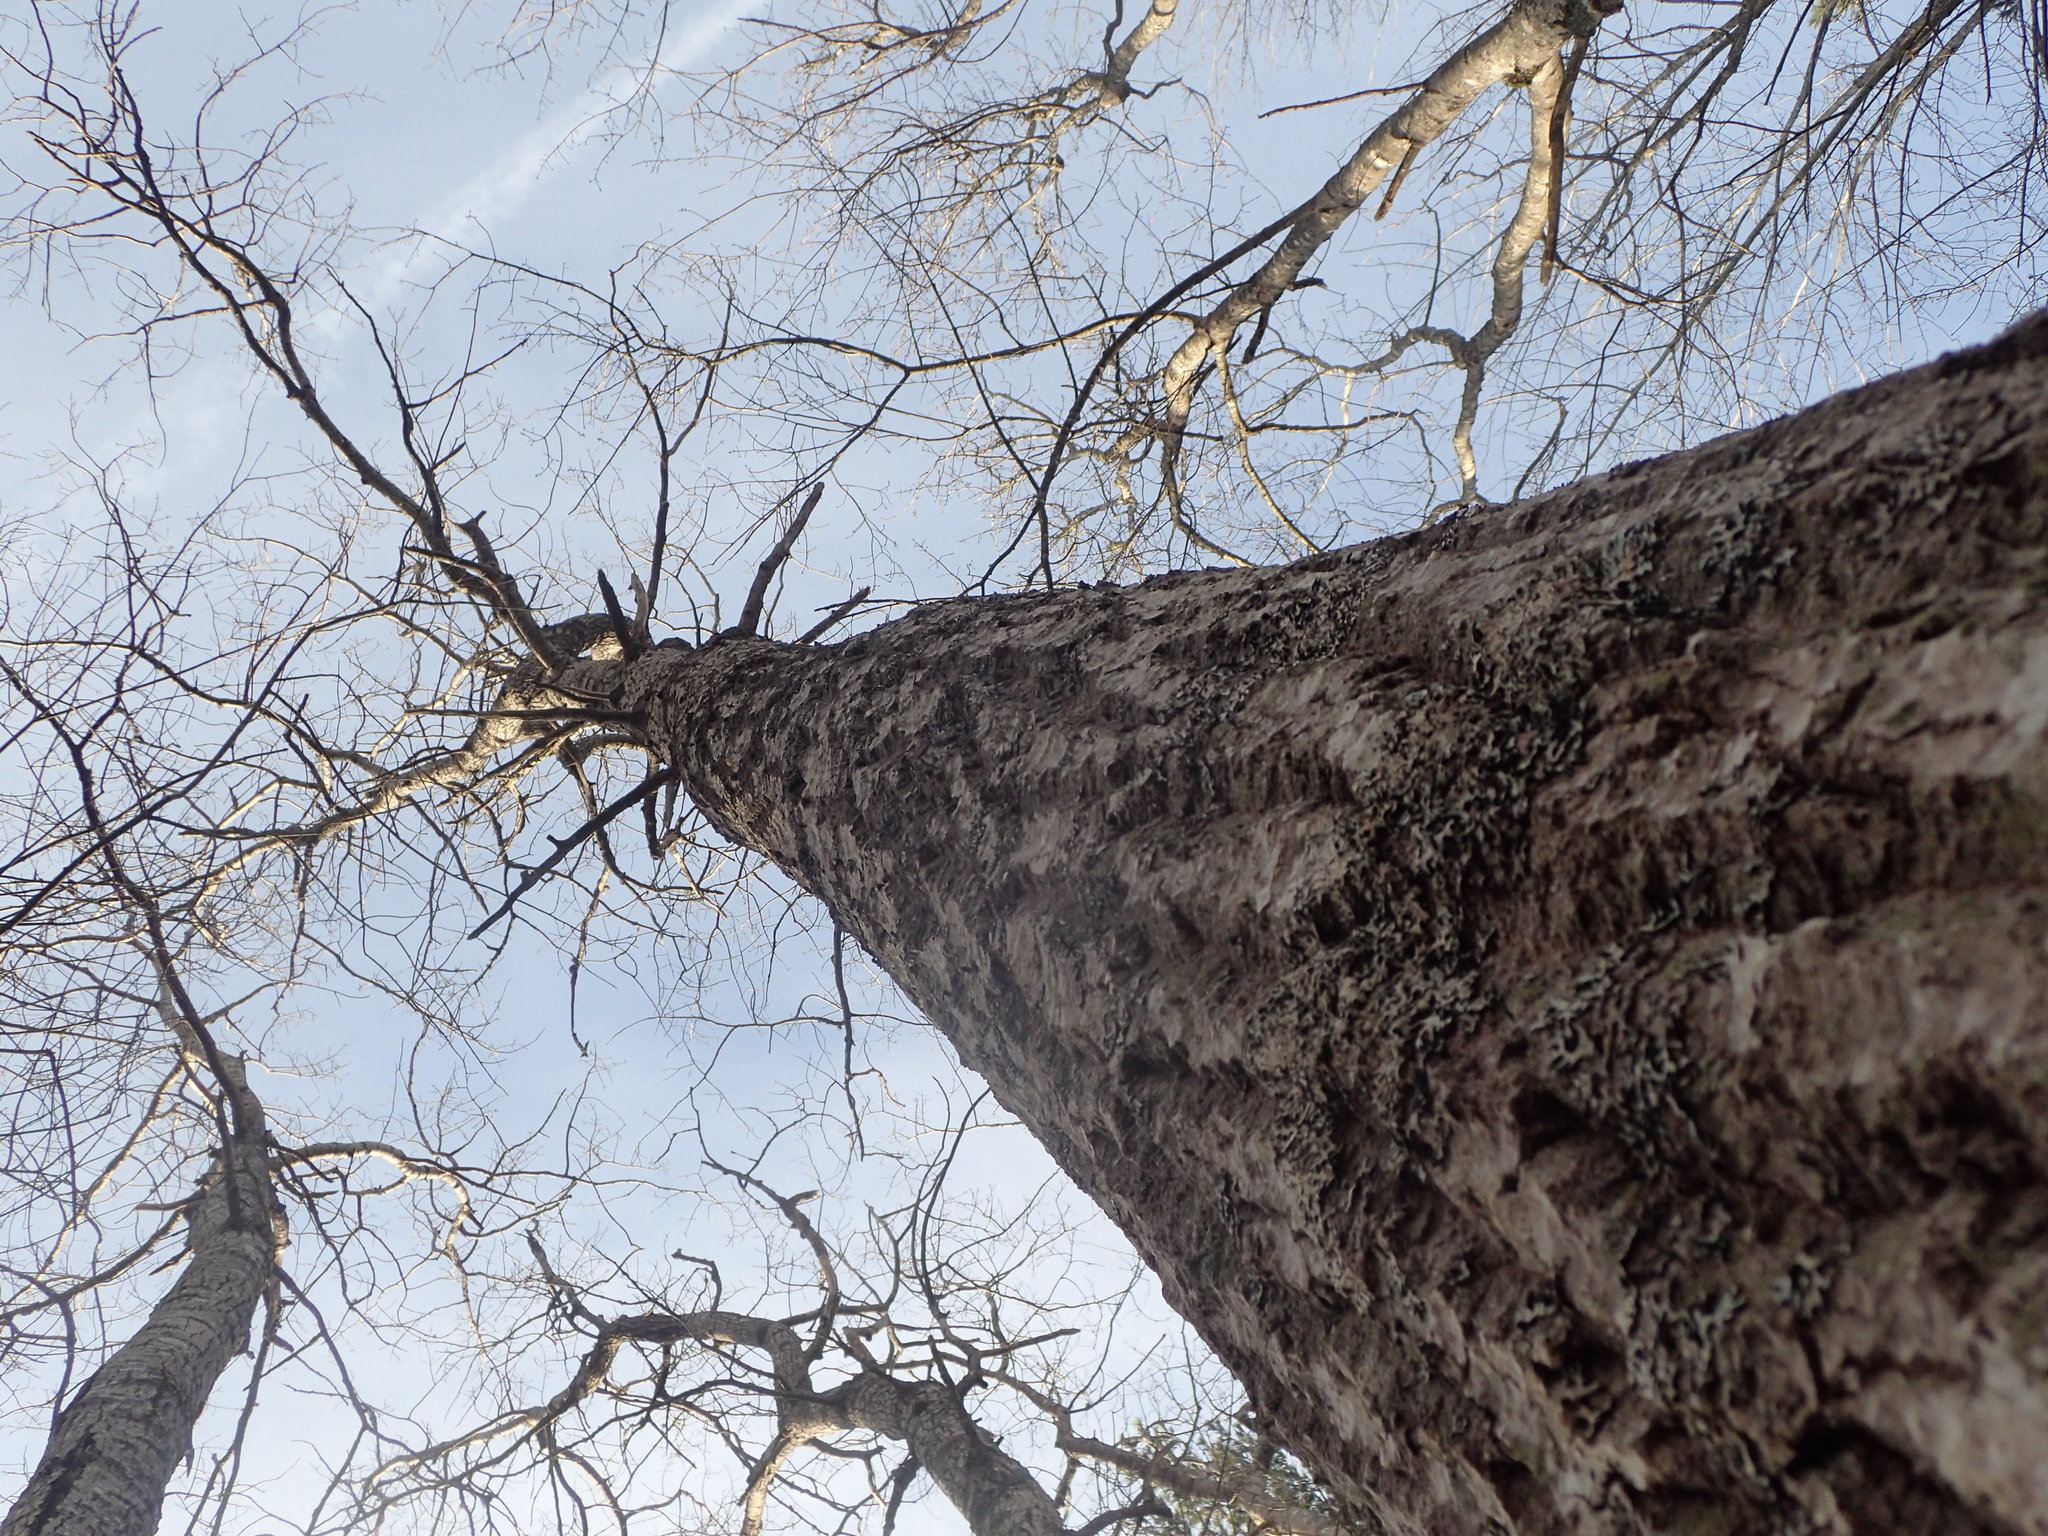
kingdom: Plantae
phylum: Tracheophyta
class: Magnoliopsida
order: Fagales
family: Fagaceae
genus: Quercus
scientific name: Quercus rubra
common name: Red oak
